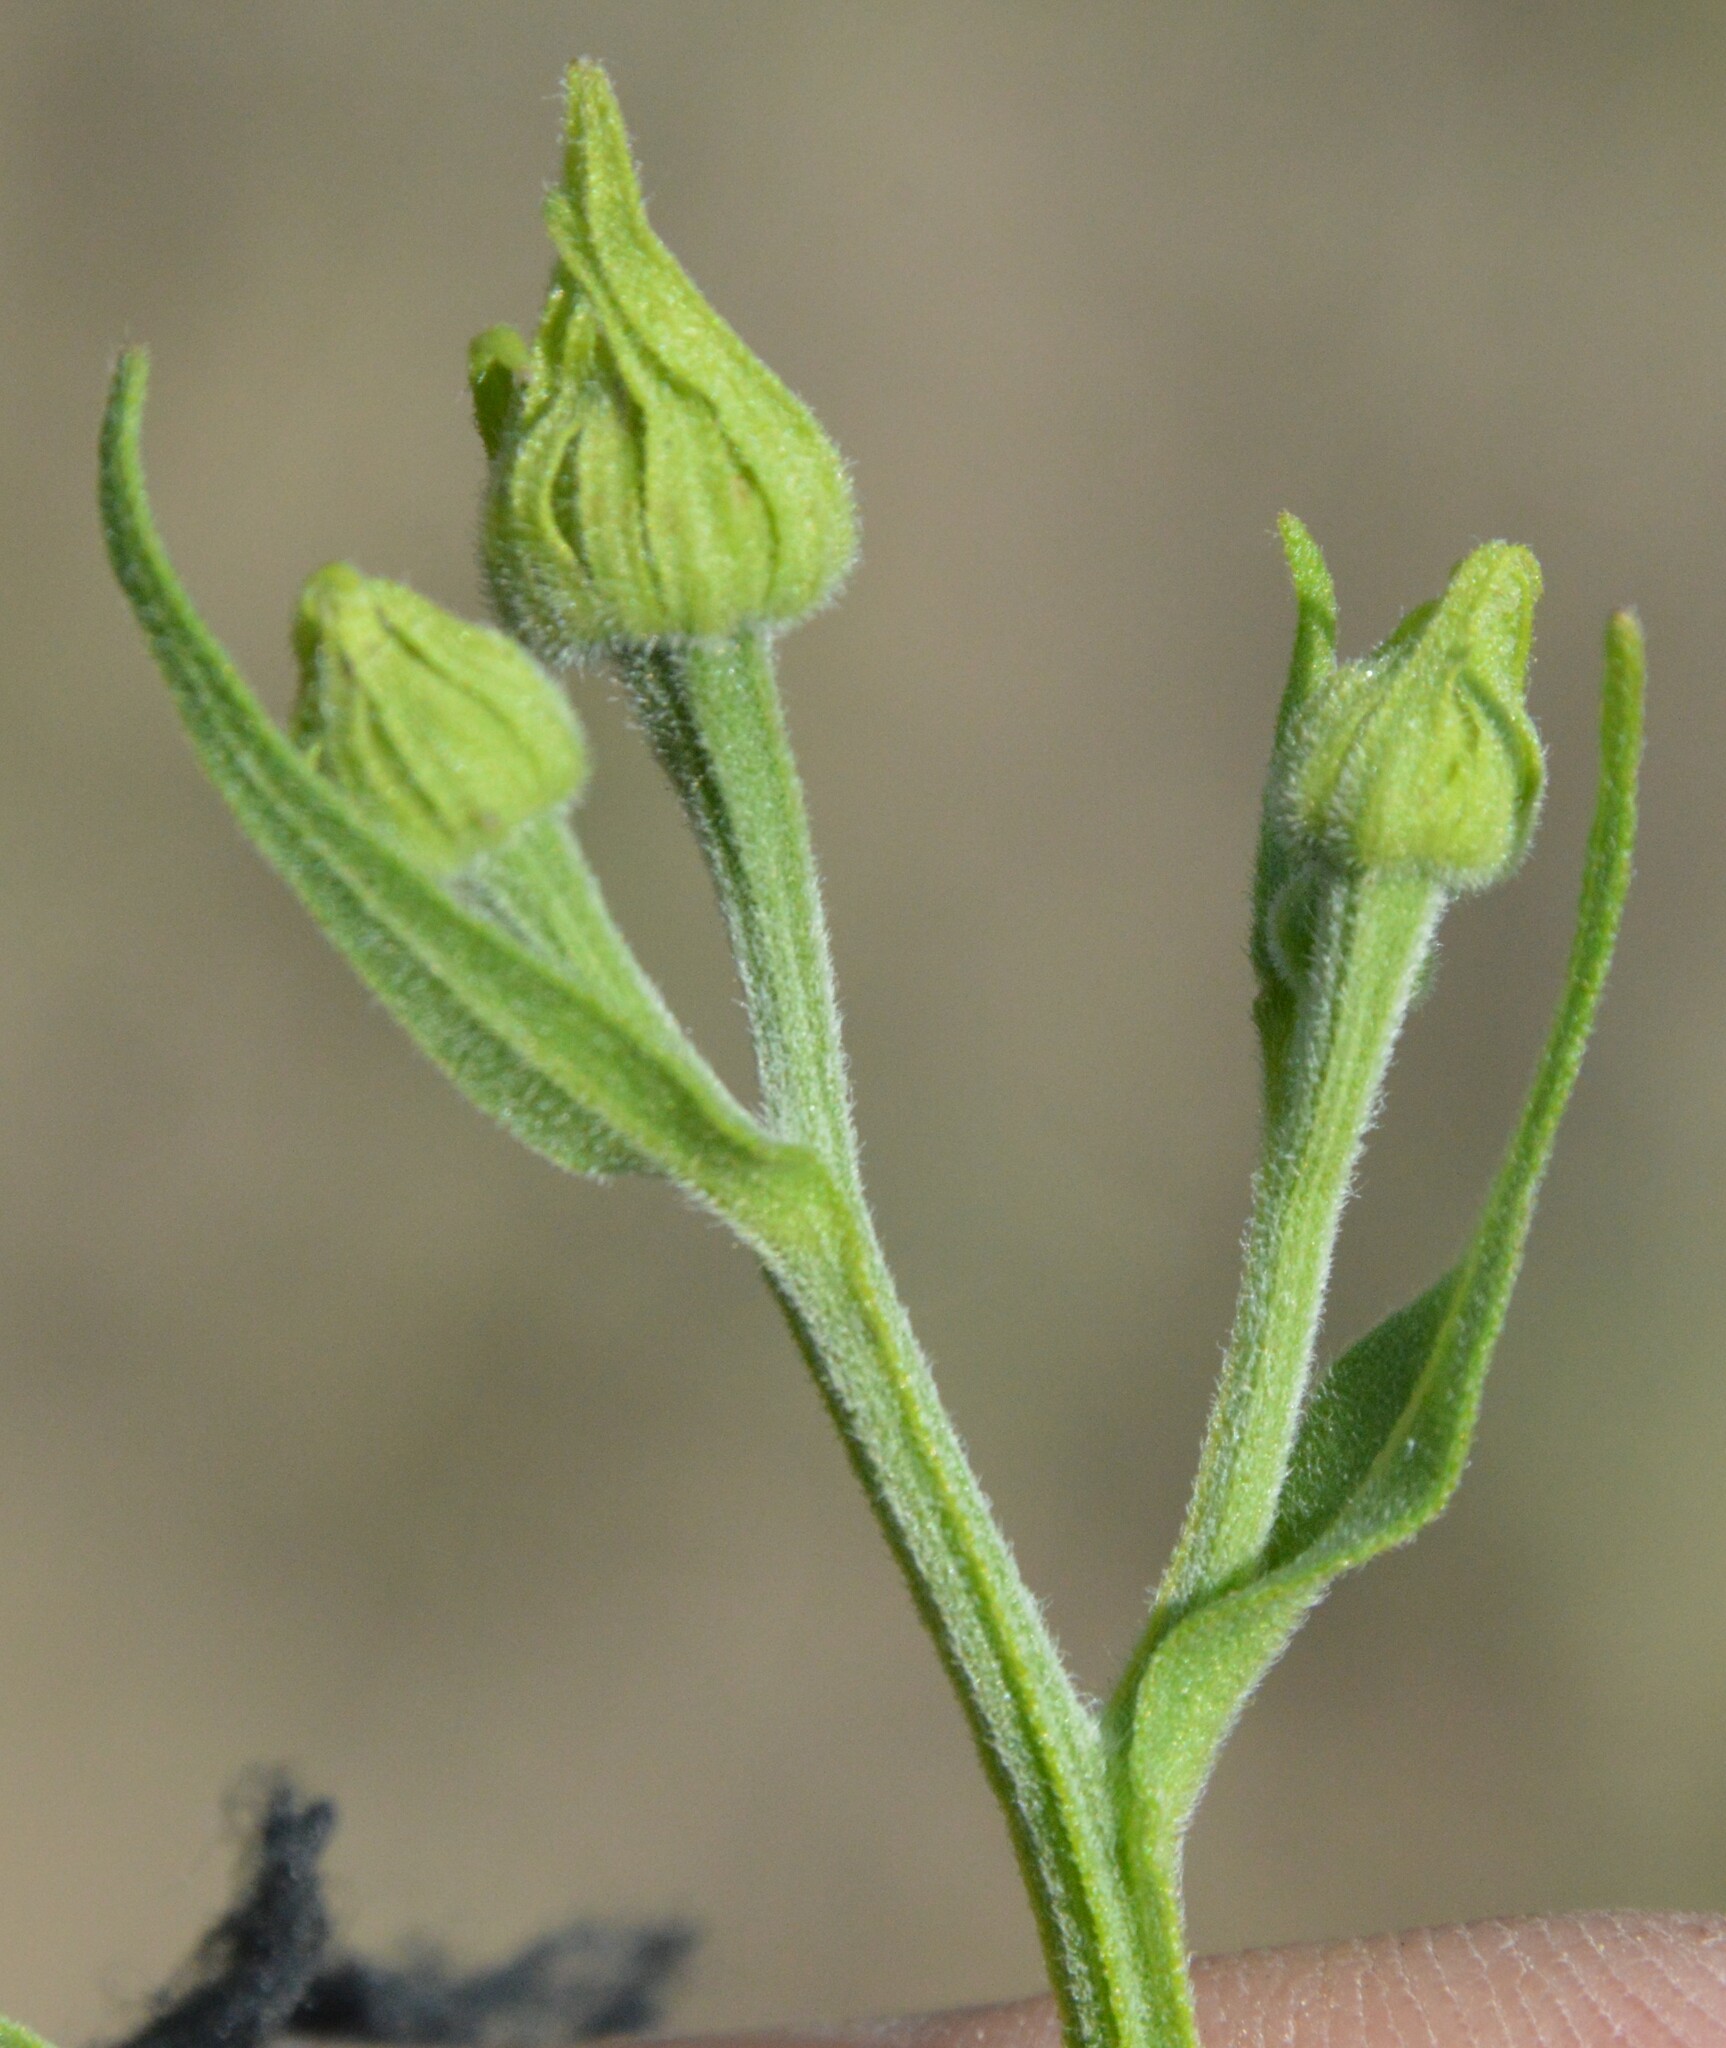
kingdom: Plantae
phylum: Tracheophyta
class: Magnoliopsida
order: Asterales
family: Asteraceae
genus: Helenium
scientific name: Helenium flexuosum
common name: Naked-flowered sneezeweed
